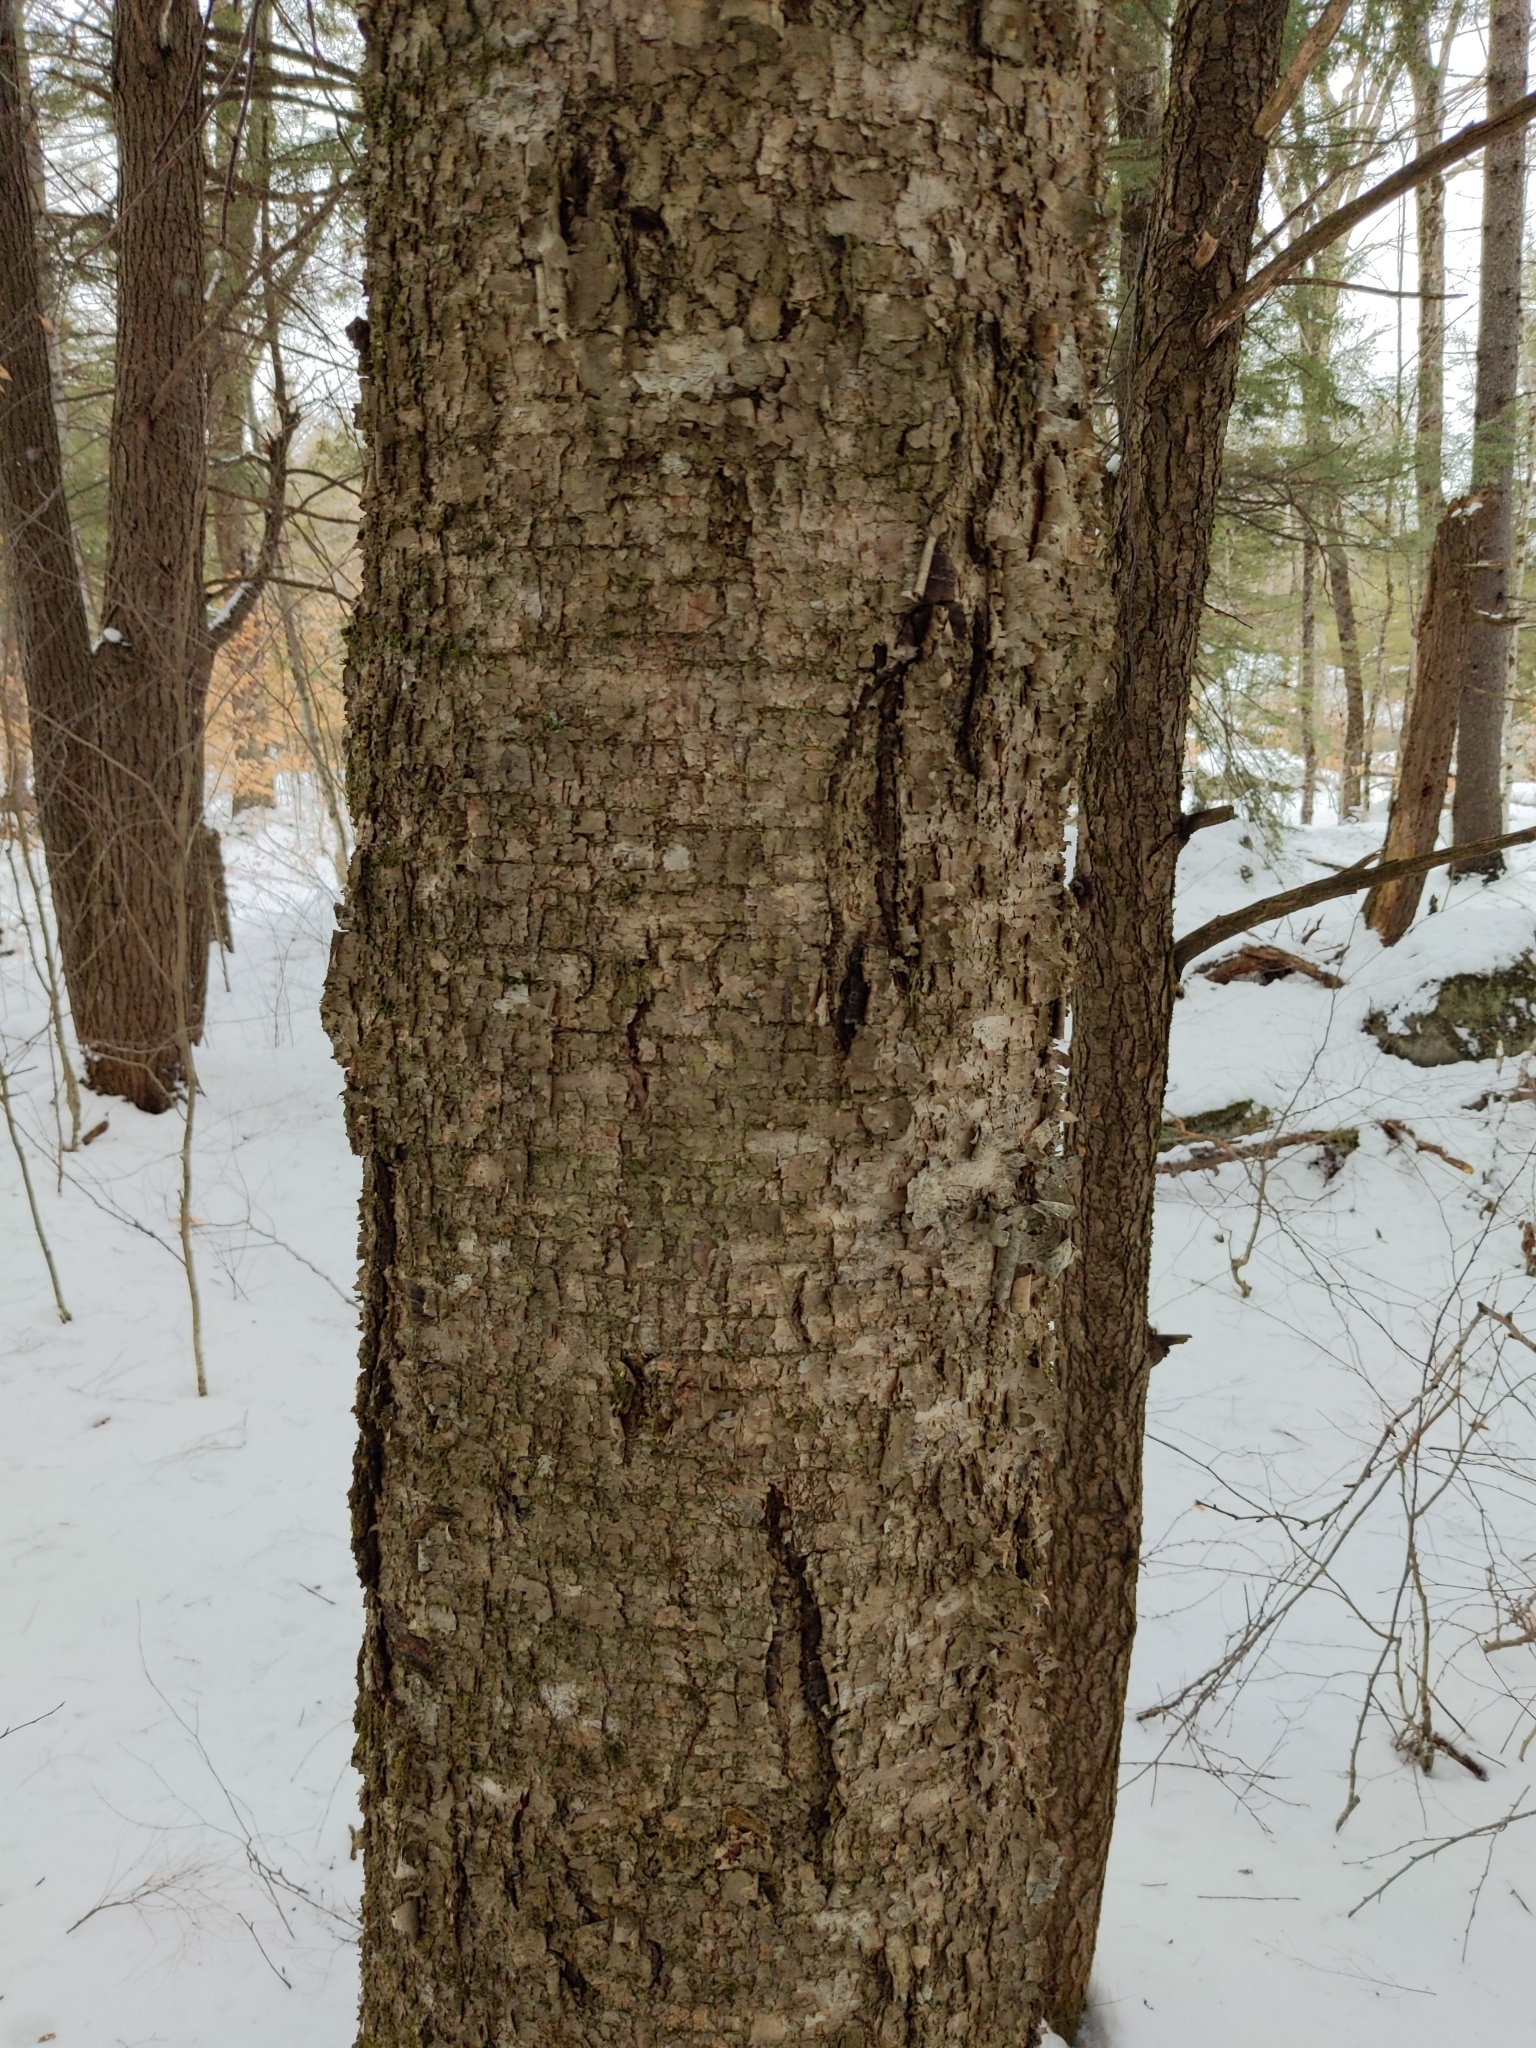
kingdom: Plantae
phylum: Tracheophyta
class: Magnoliopsida
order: Fagales
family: Betulaceae
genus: Betula
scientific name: Betula alleghaniensis
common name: Yellow birch
